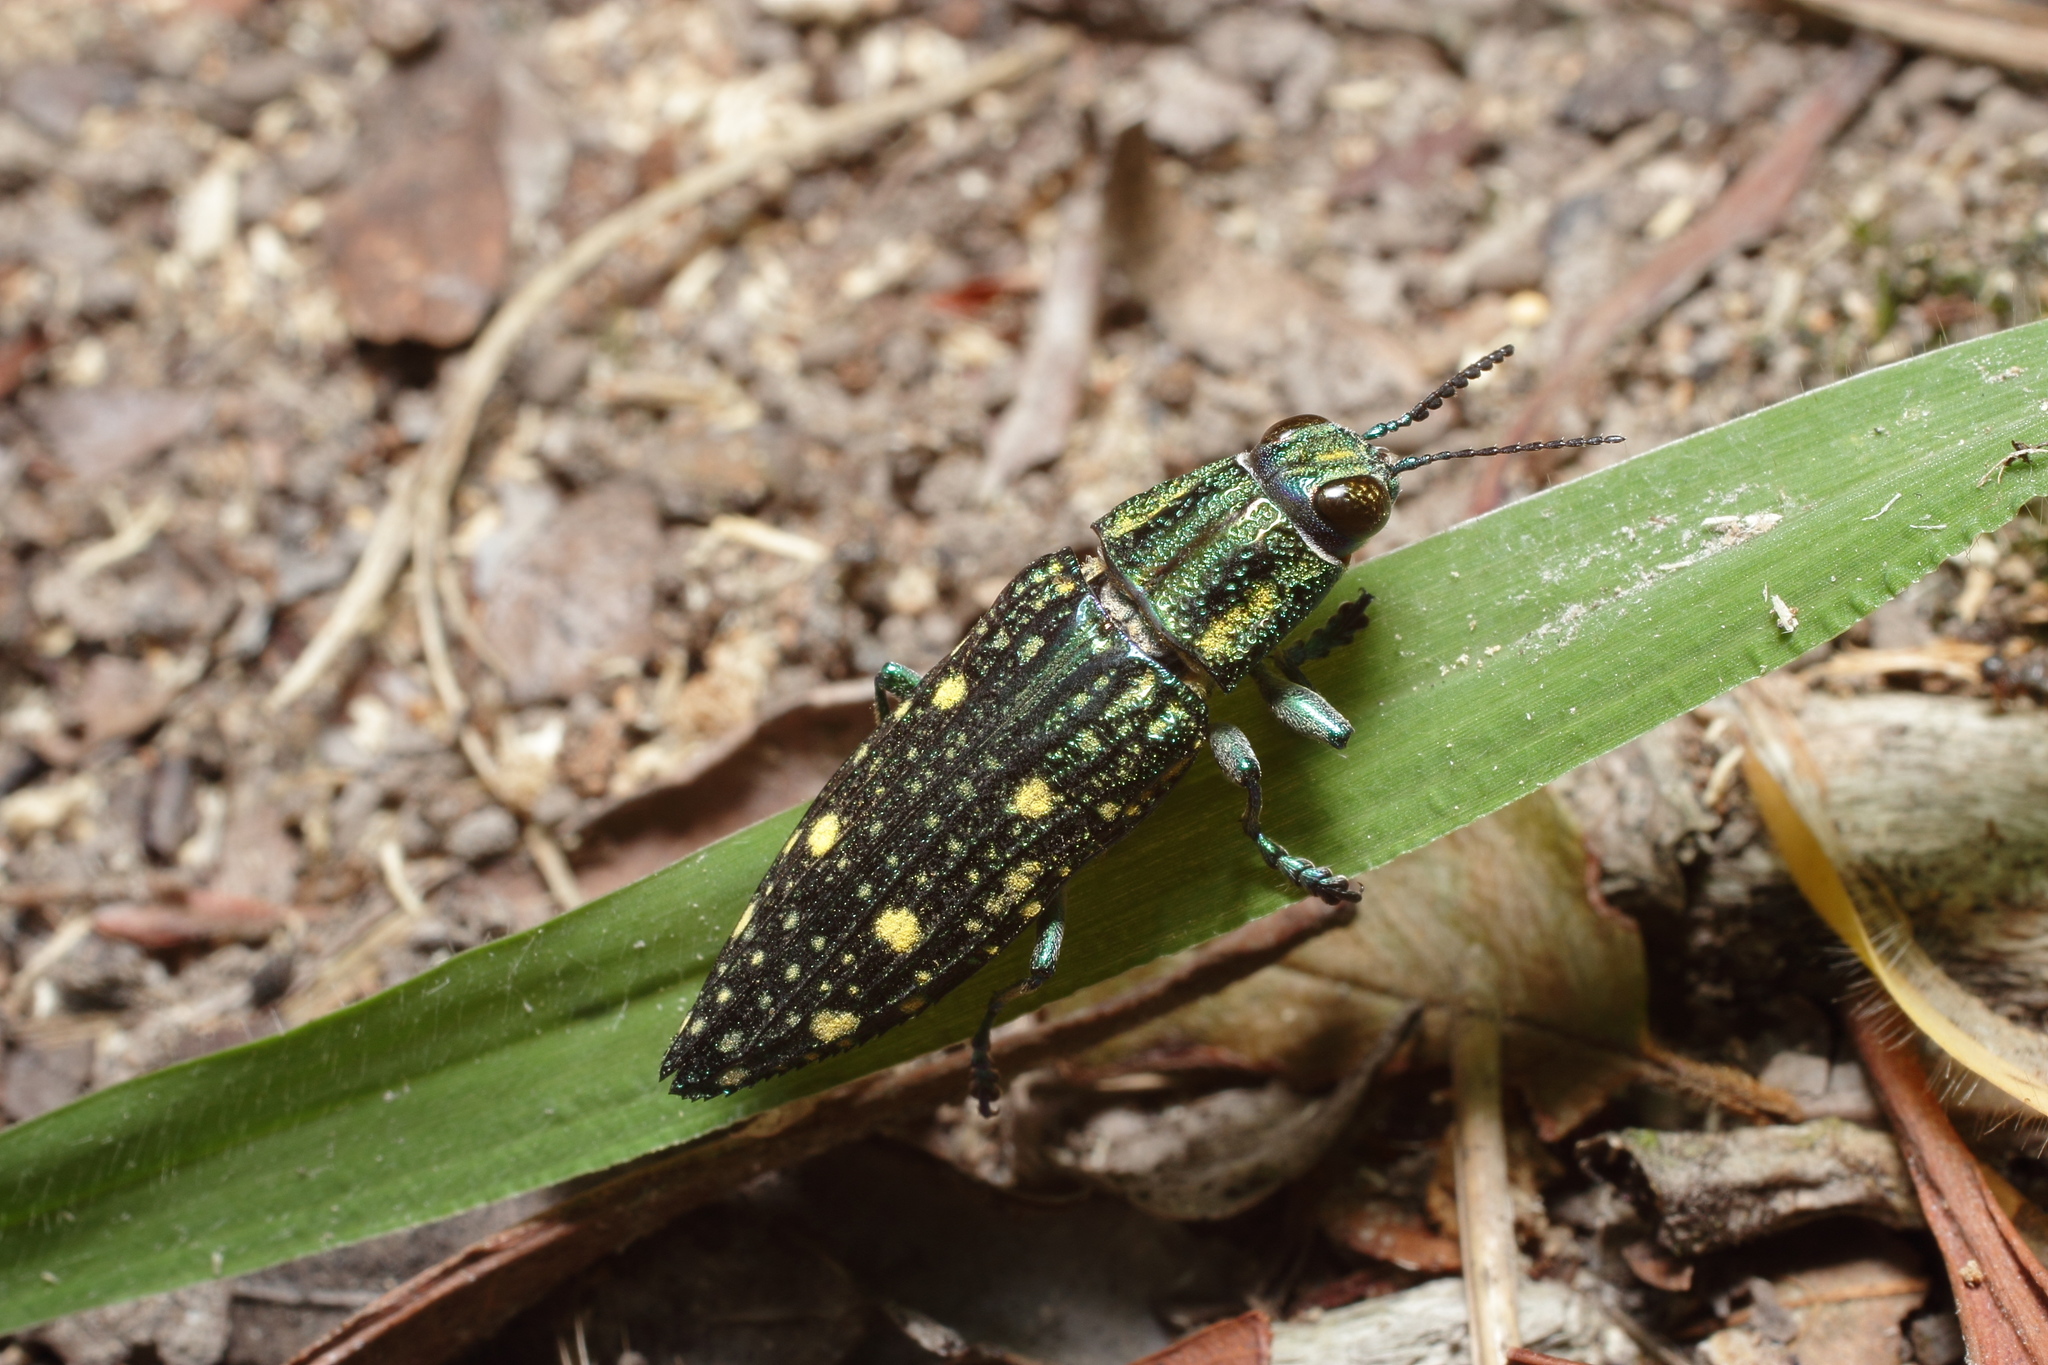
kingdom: Animalia
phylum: Arthropoda
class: Insecta
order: Coleoptera
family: Buprestidae
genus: Nipponobuprestis
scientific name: Nipponobuprestis amabilis
